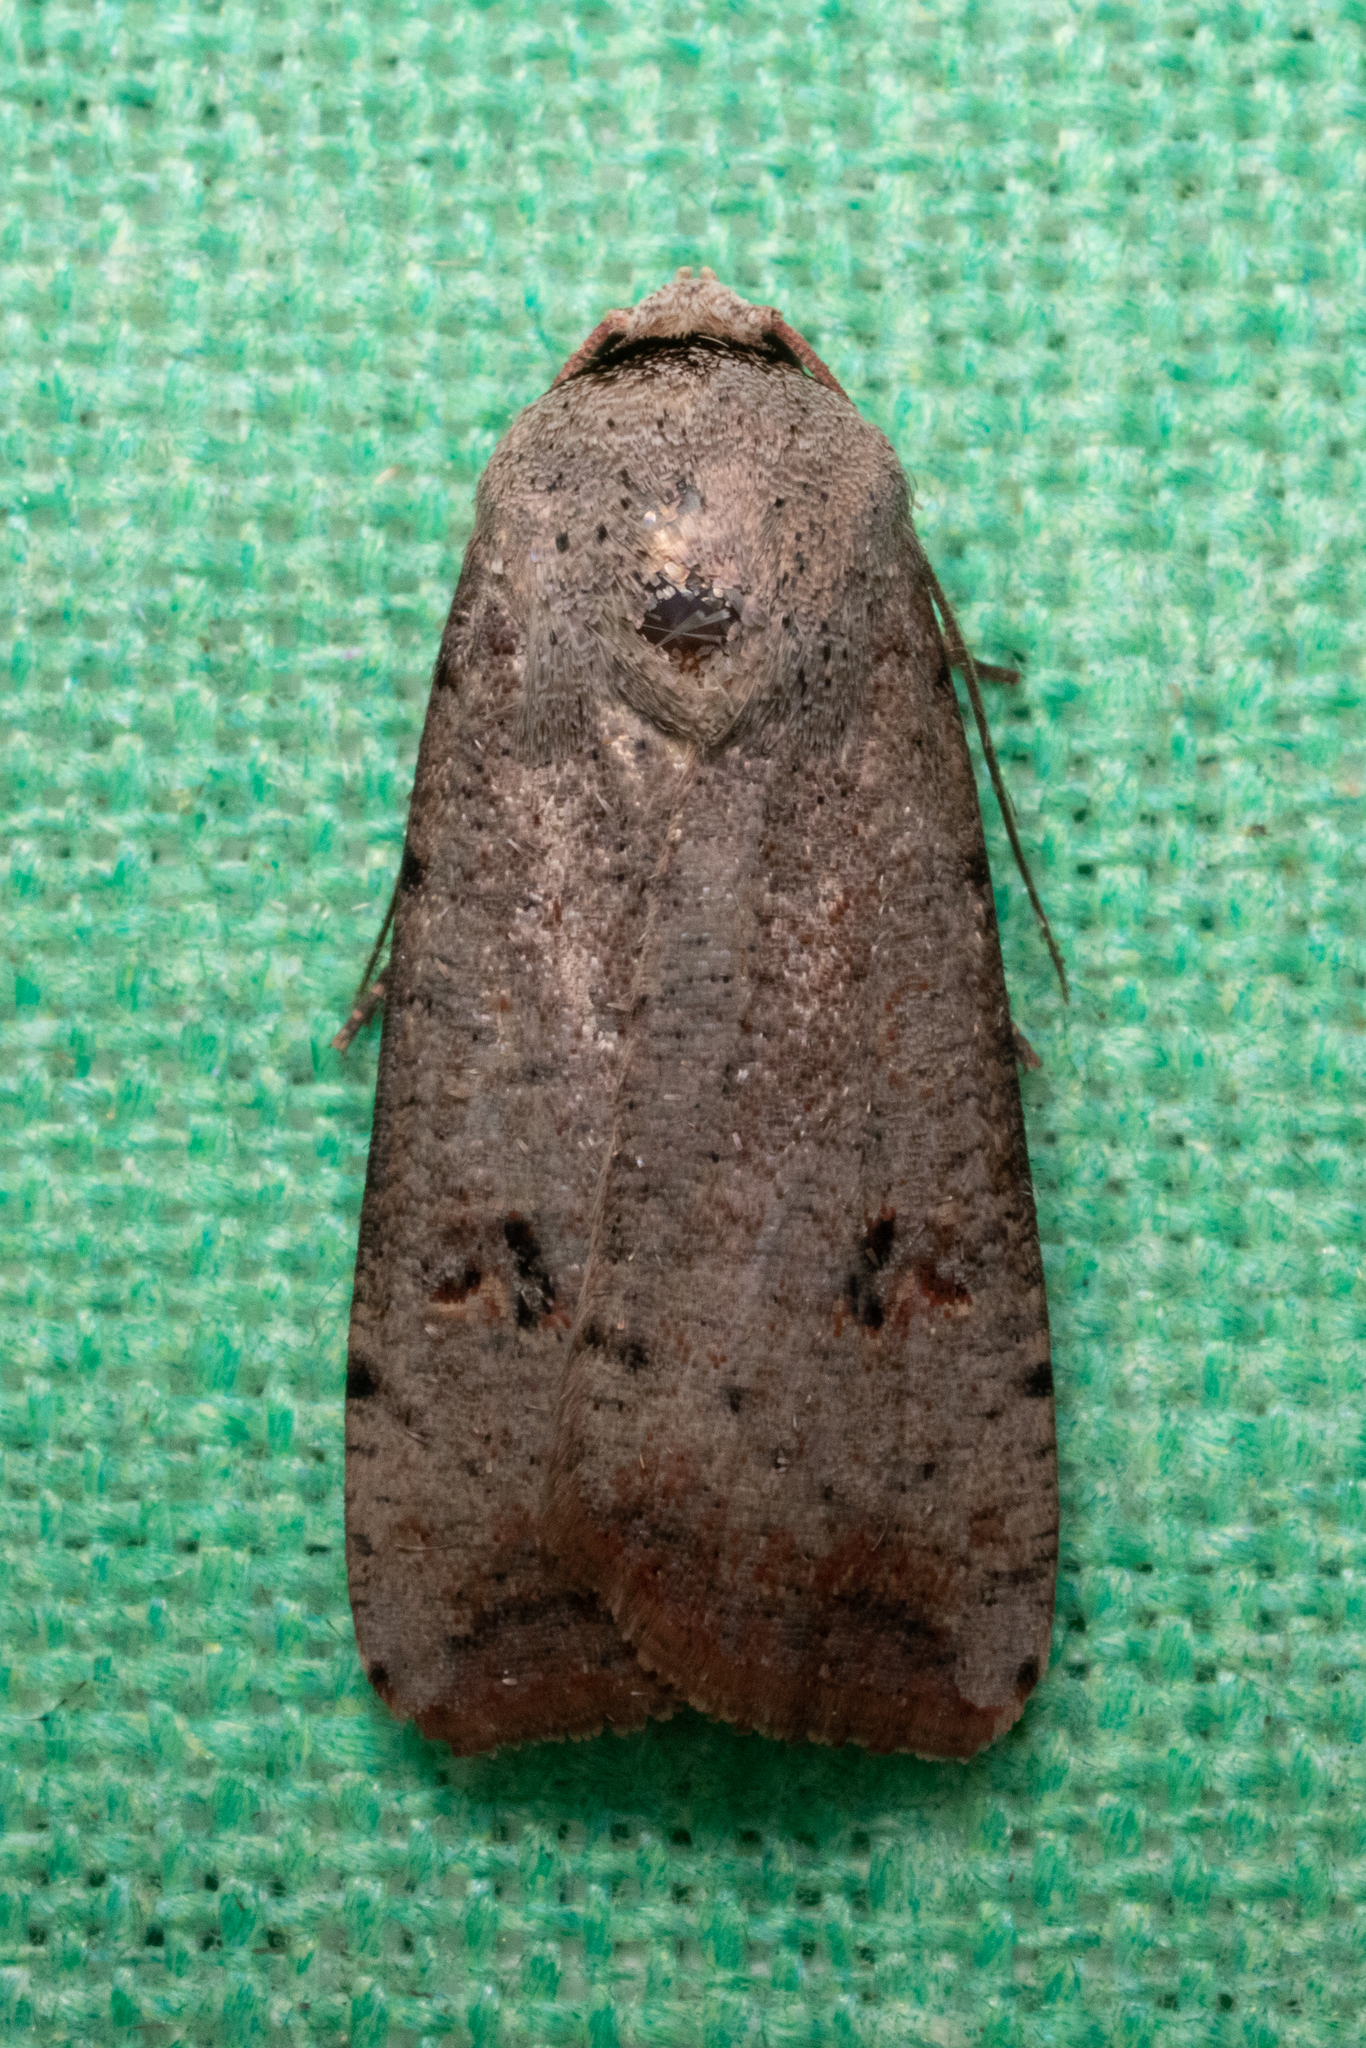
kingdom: Animalia
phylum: Arthropoda
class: Insecta
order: Lepidoptera
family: Noctuidae
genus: Anicla
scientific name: Anicla infecta
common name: Green cutworm
